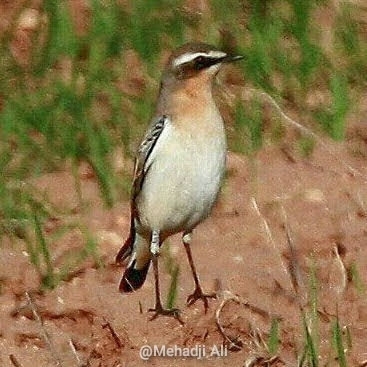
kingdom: Animalia
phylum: Chordata
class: Aves
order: Passeriformes
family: Muscicapidae
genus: Oenanthe
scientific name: Oenanthe oenanthe
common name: Northern wheatear
